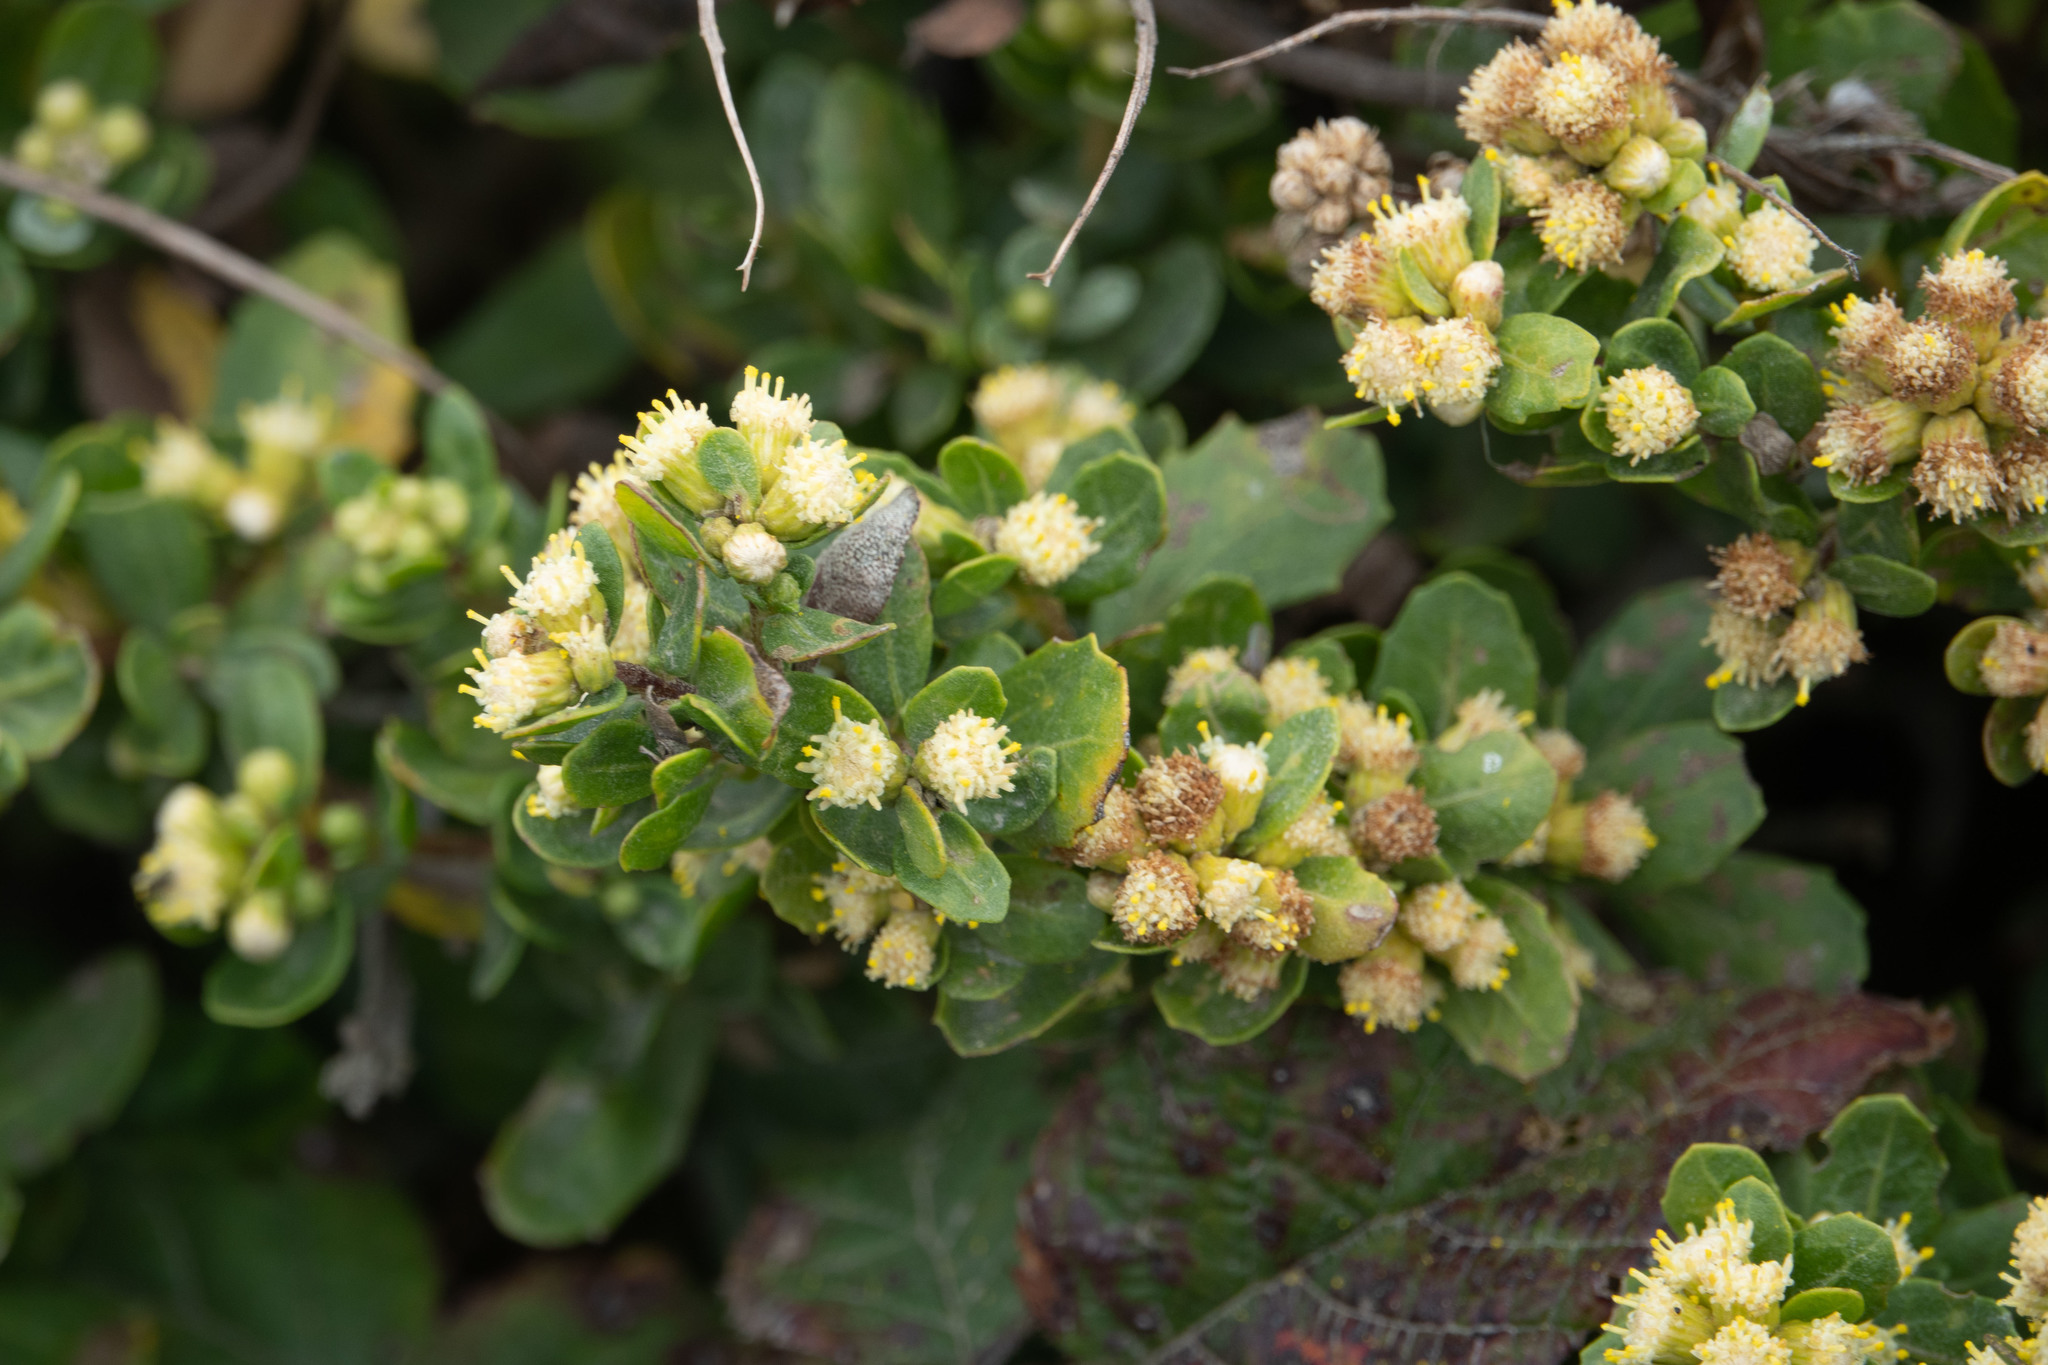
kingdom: Plantae
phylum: Tracheophyta
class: Magnoliopsida
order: Asterales
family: Asteraceae
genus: Baccharis
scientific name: Baccharis pilularis
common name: Coyotebrush
